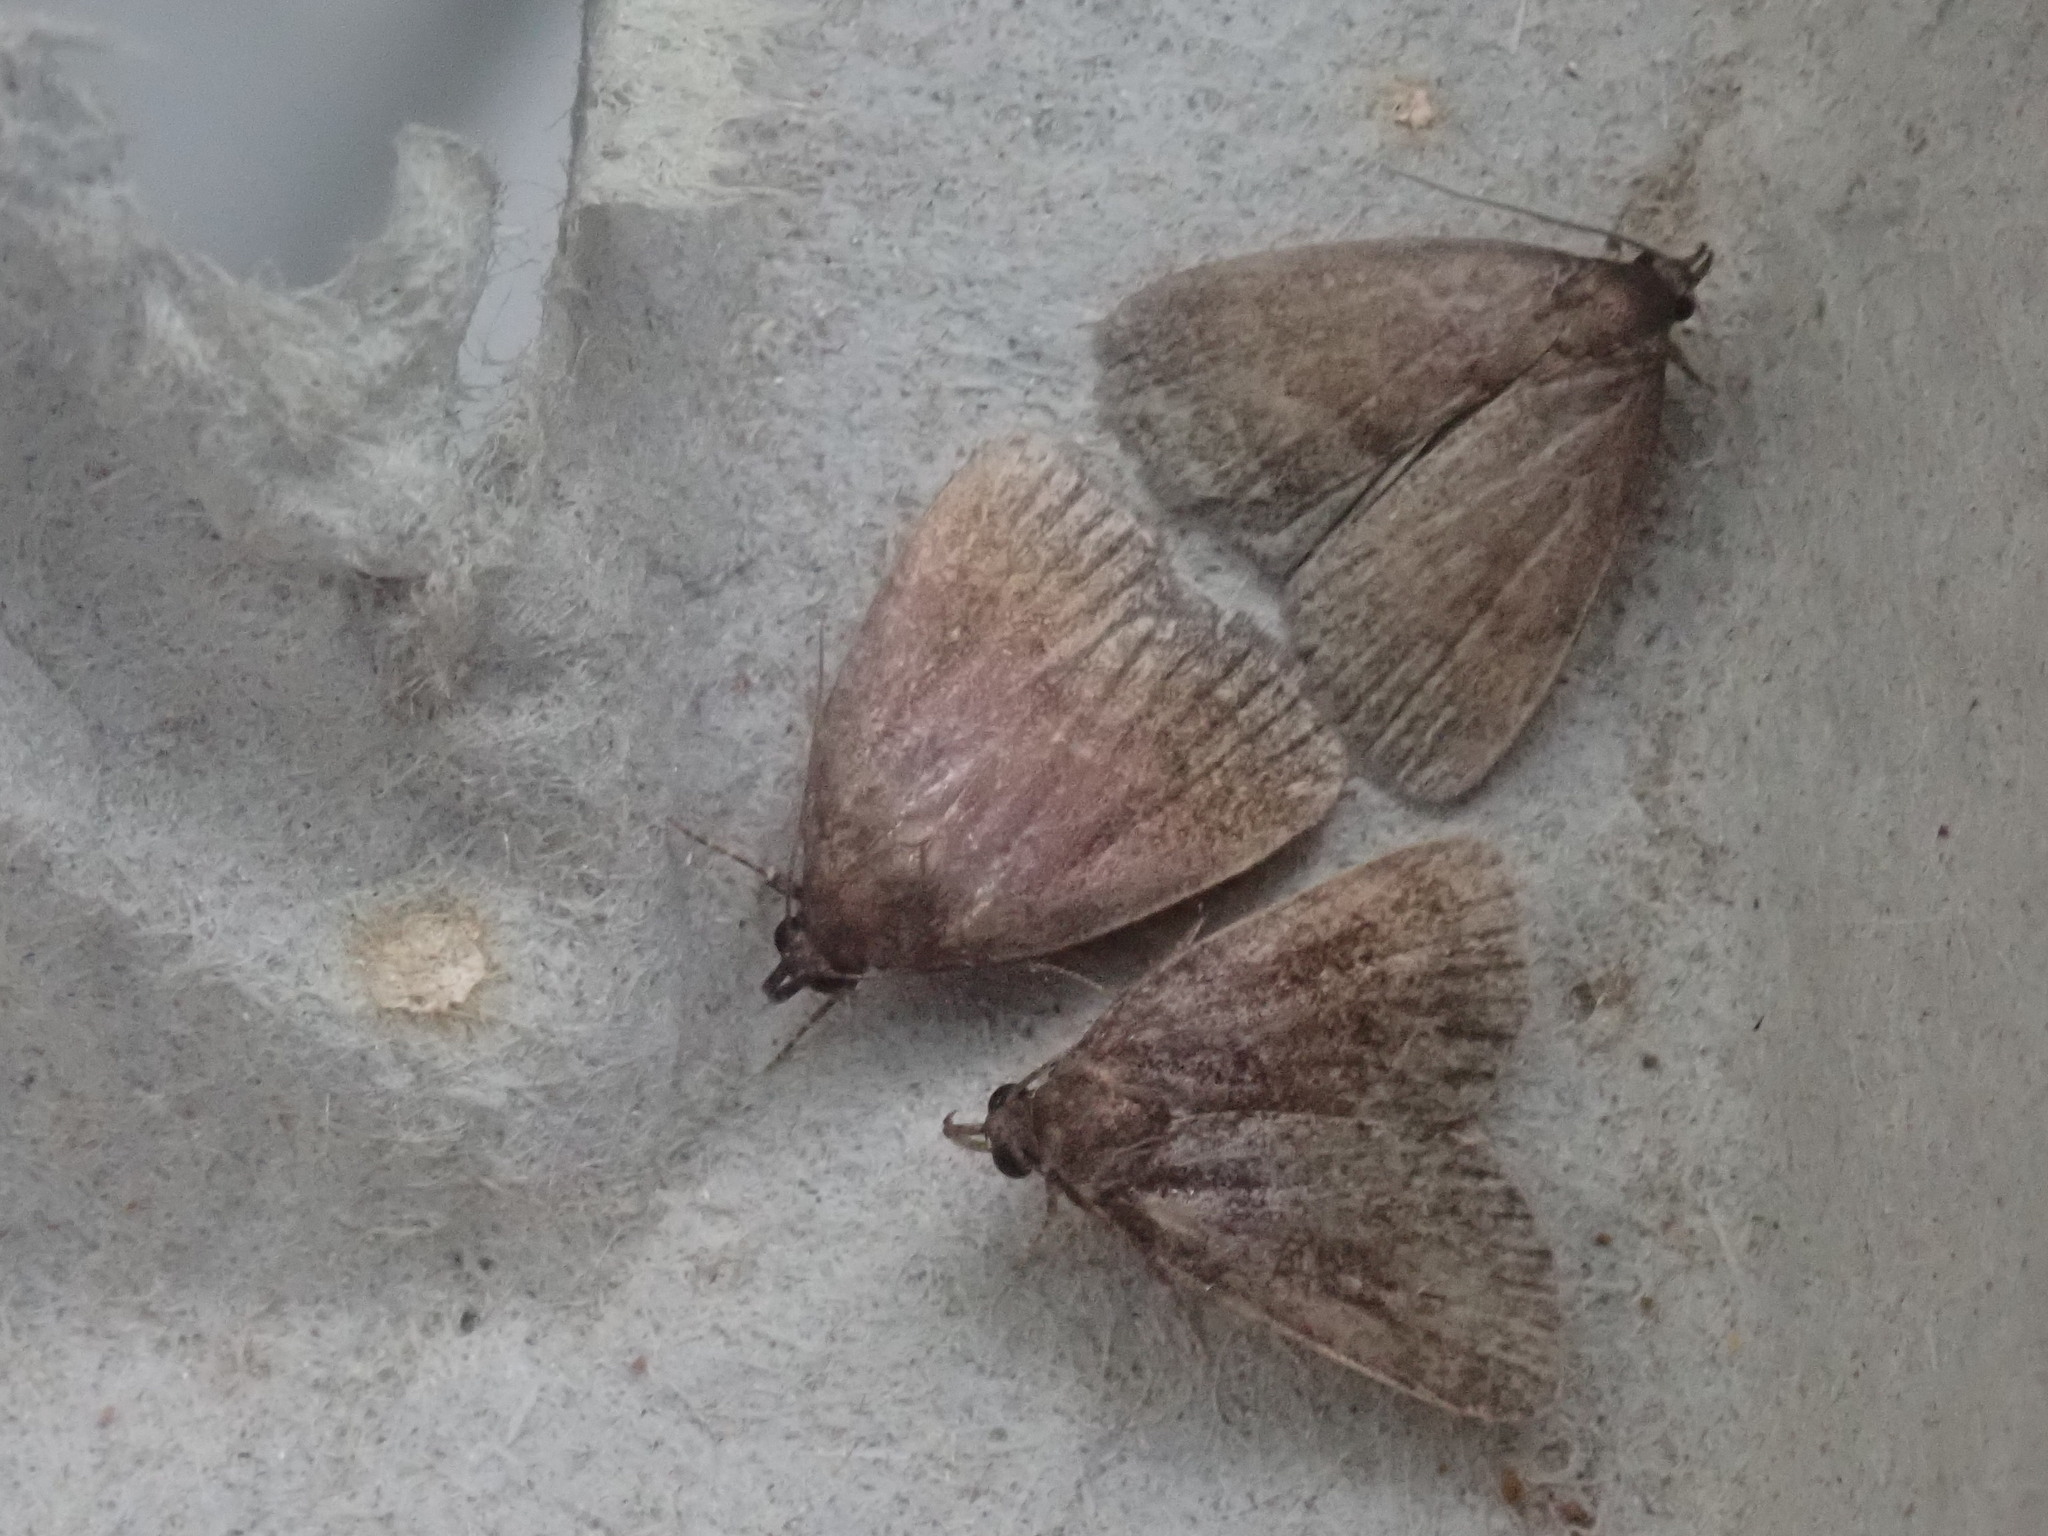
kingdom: Animalia
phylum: Arthropoda
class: Insecta
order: Lepidoptera
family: Erebidae
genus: Idia
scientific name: Idia rotundalis
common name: Rotund idia moth
